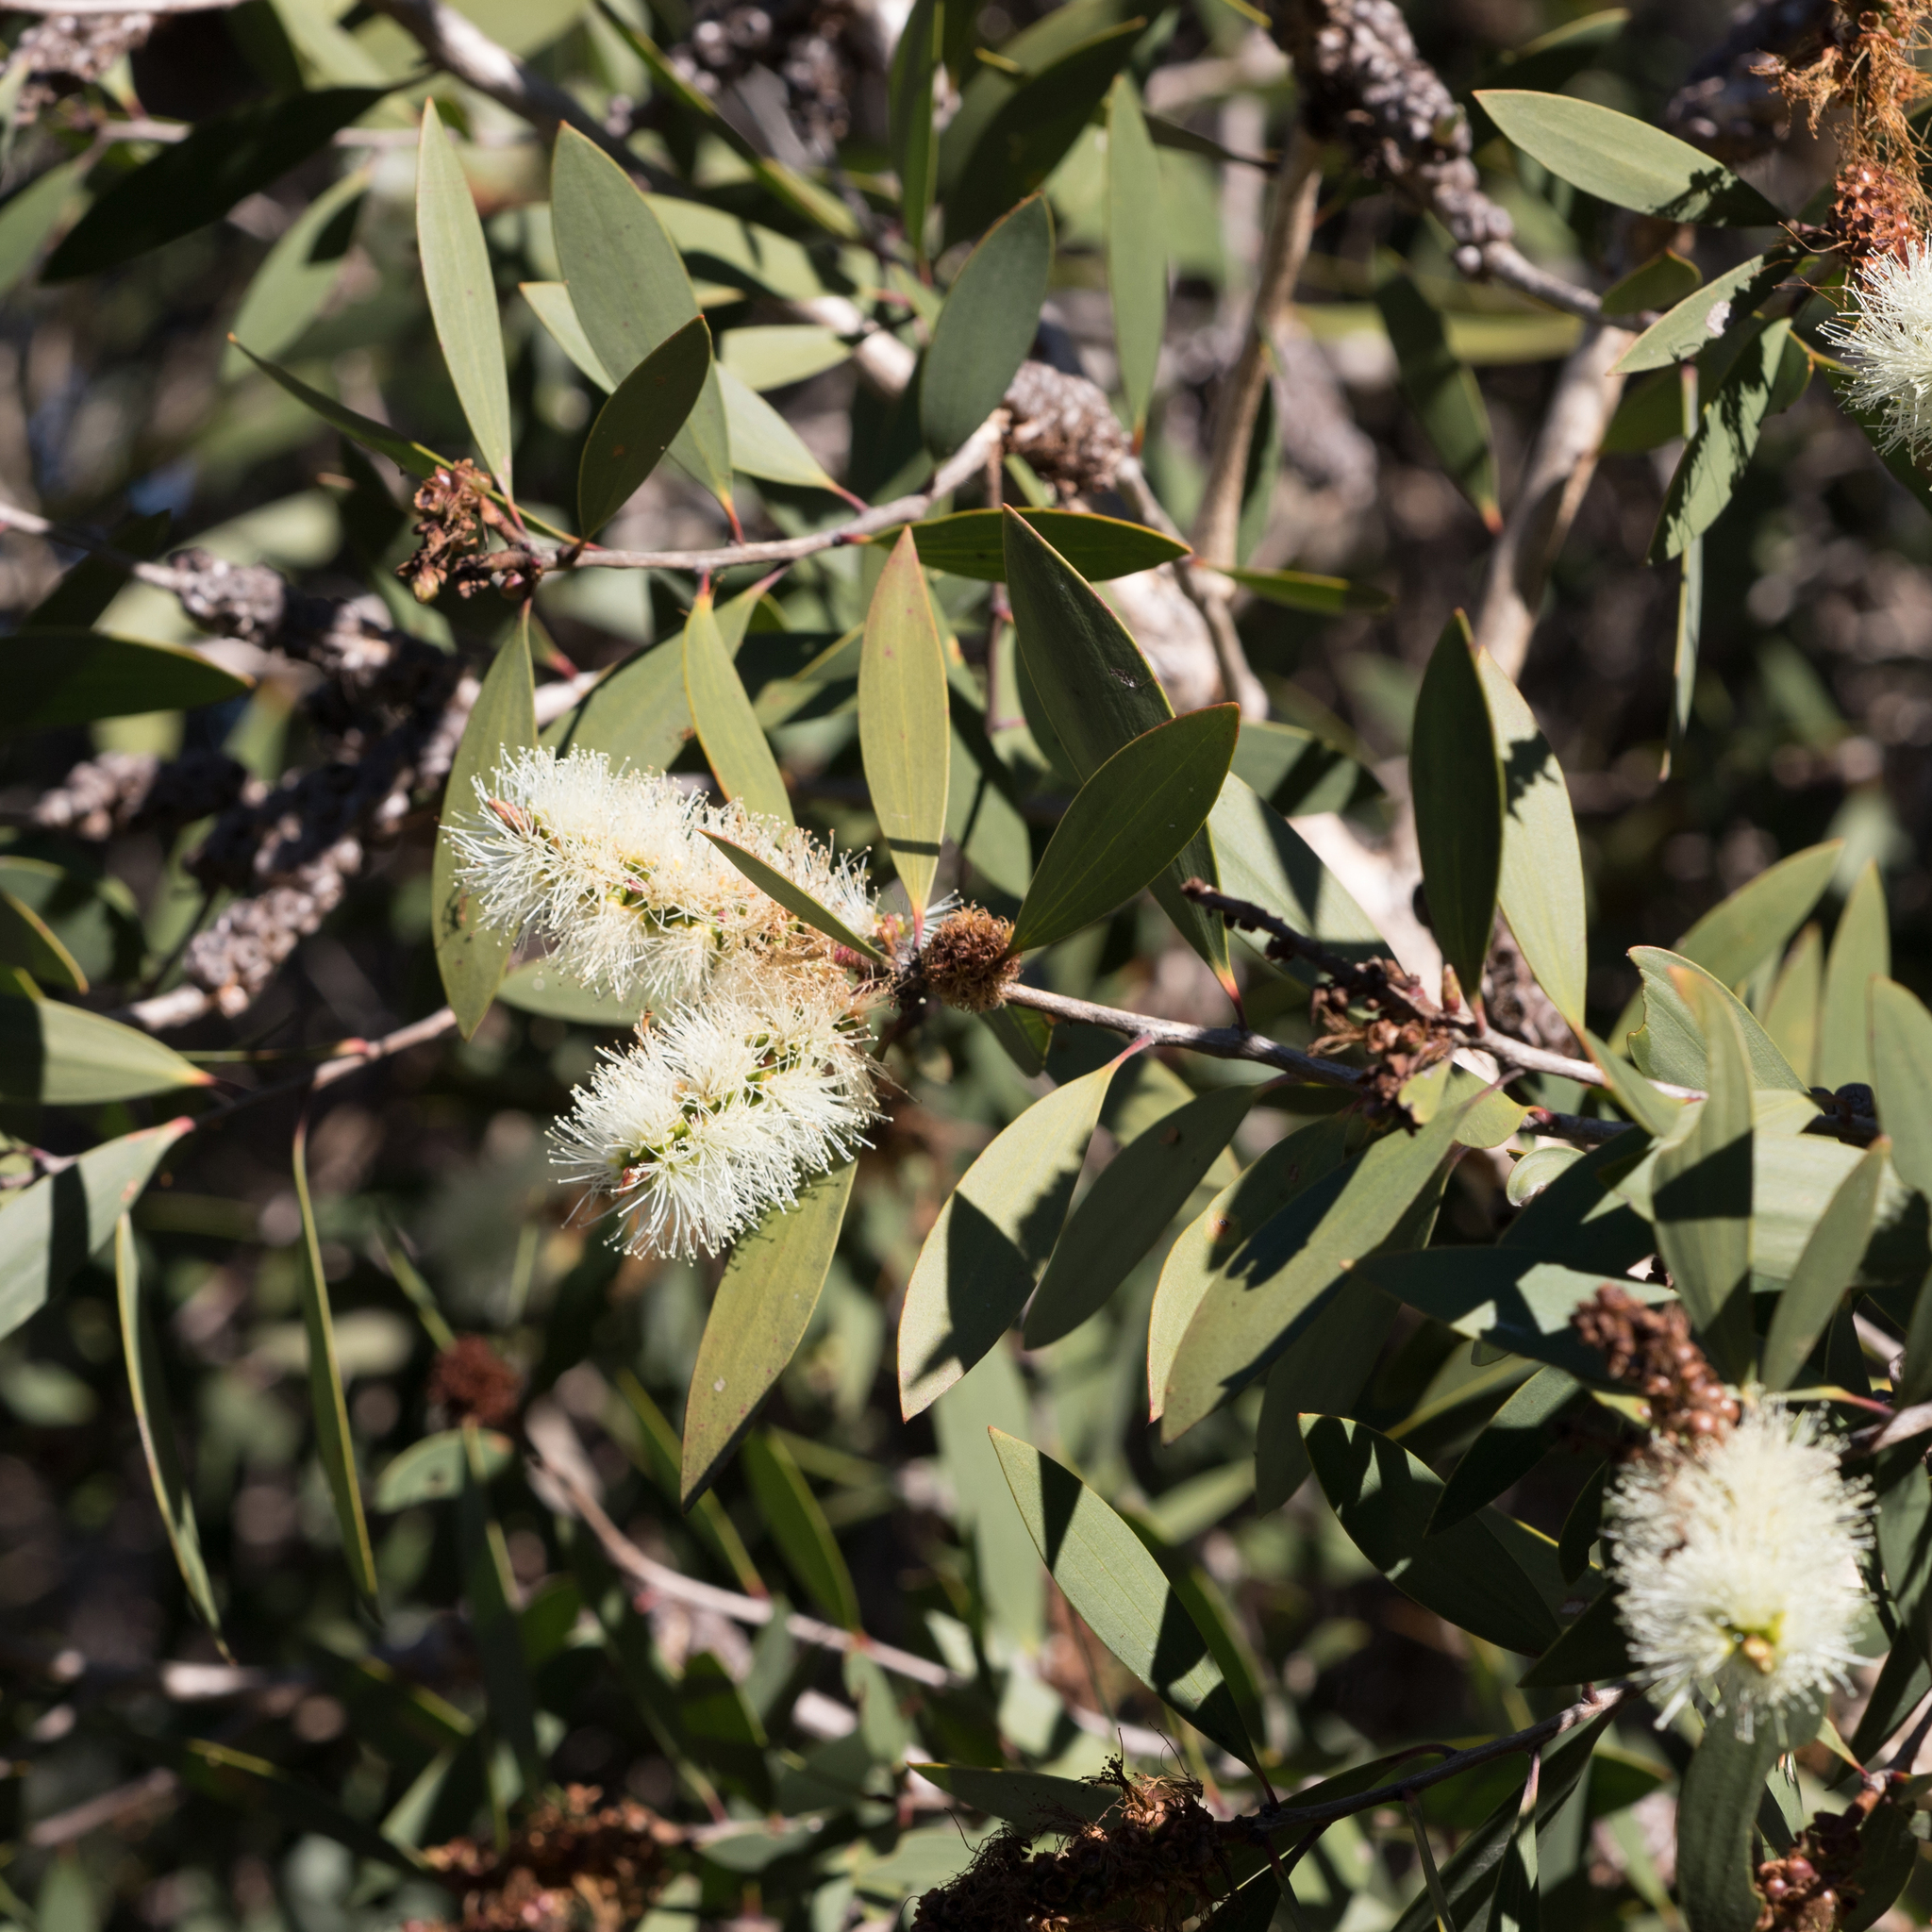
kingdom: Plantae
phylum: Tracheophyta
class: Magnoliopsida
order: Myrtales
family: Myrtaceae
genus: Melaleuca
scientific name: Melaleuca quinquenervia
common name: Punktree
